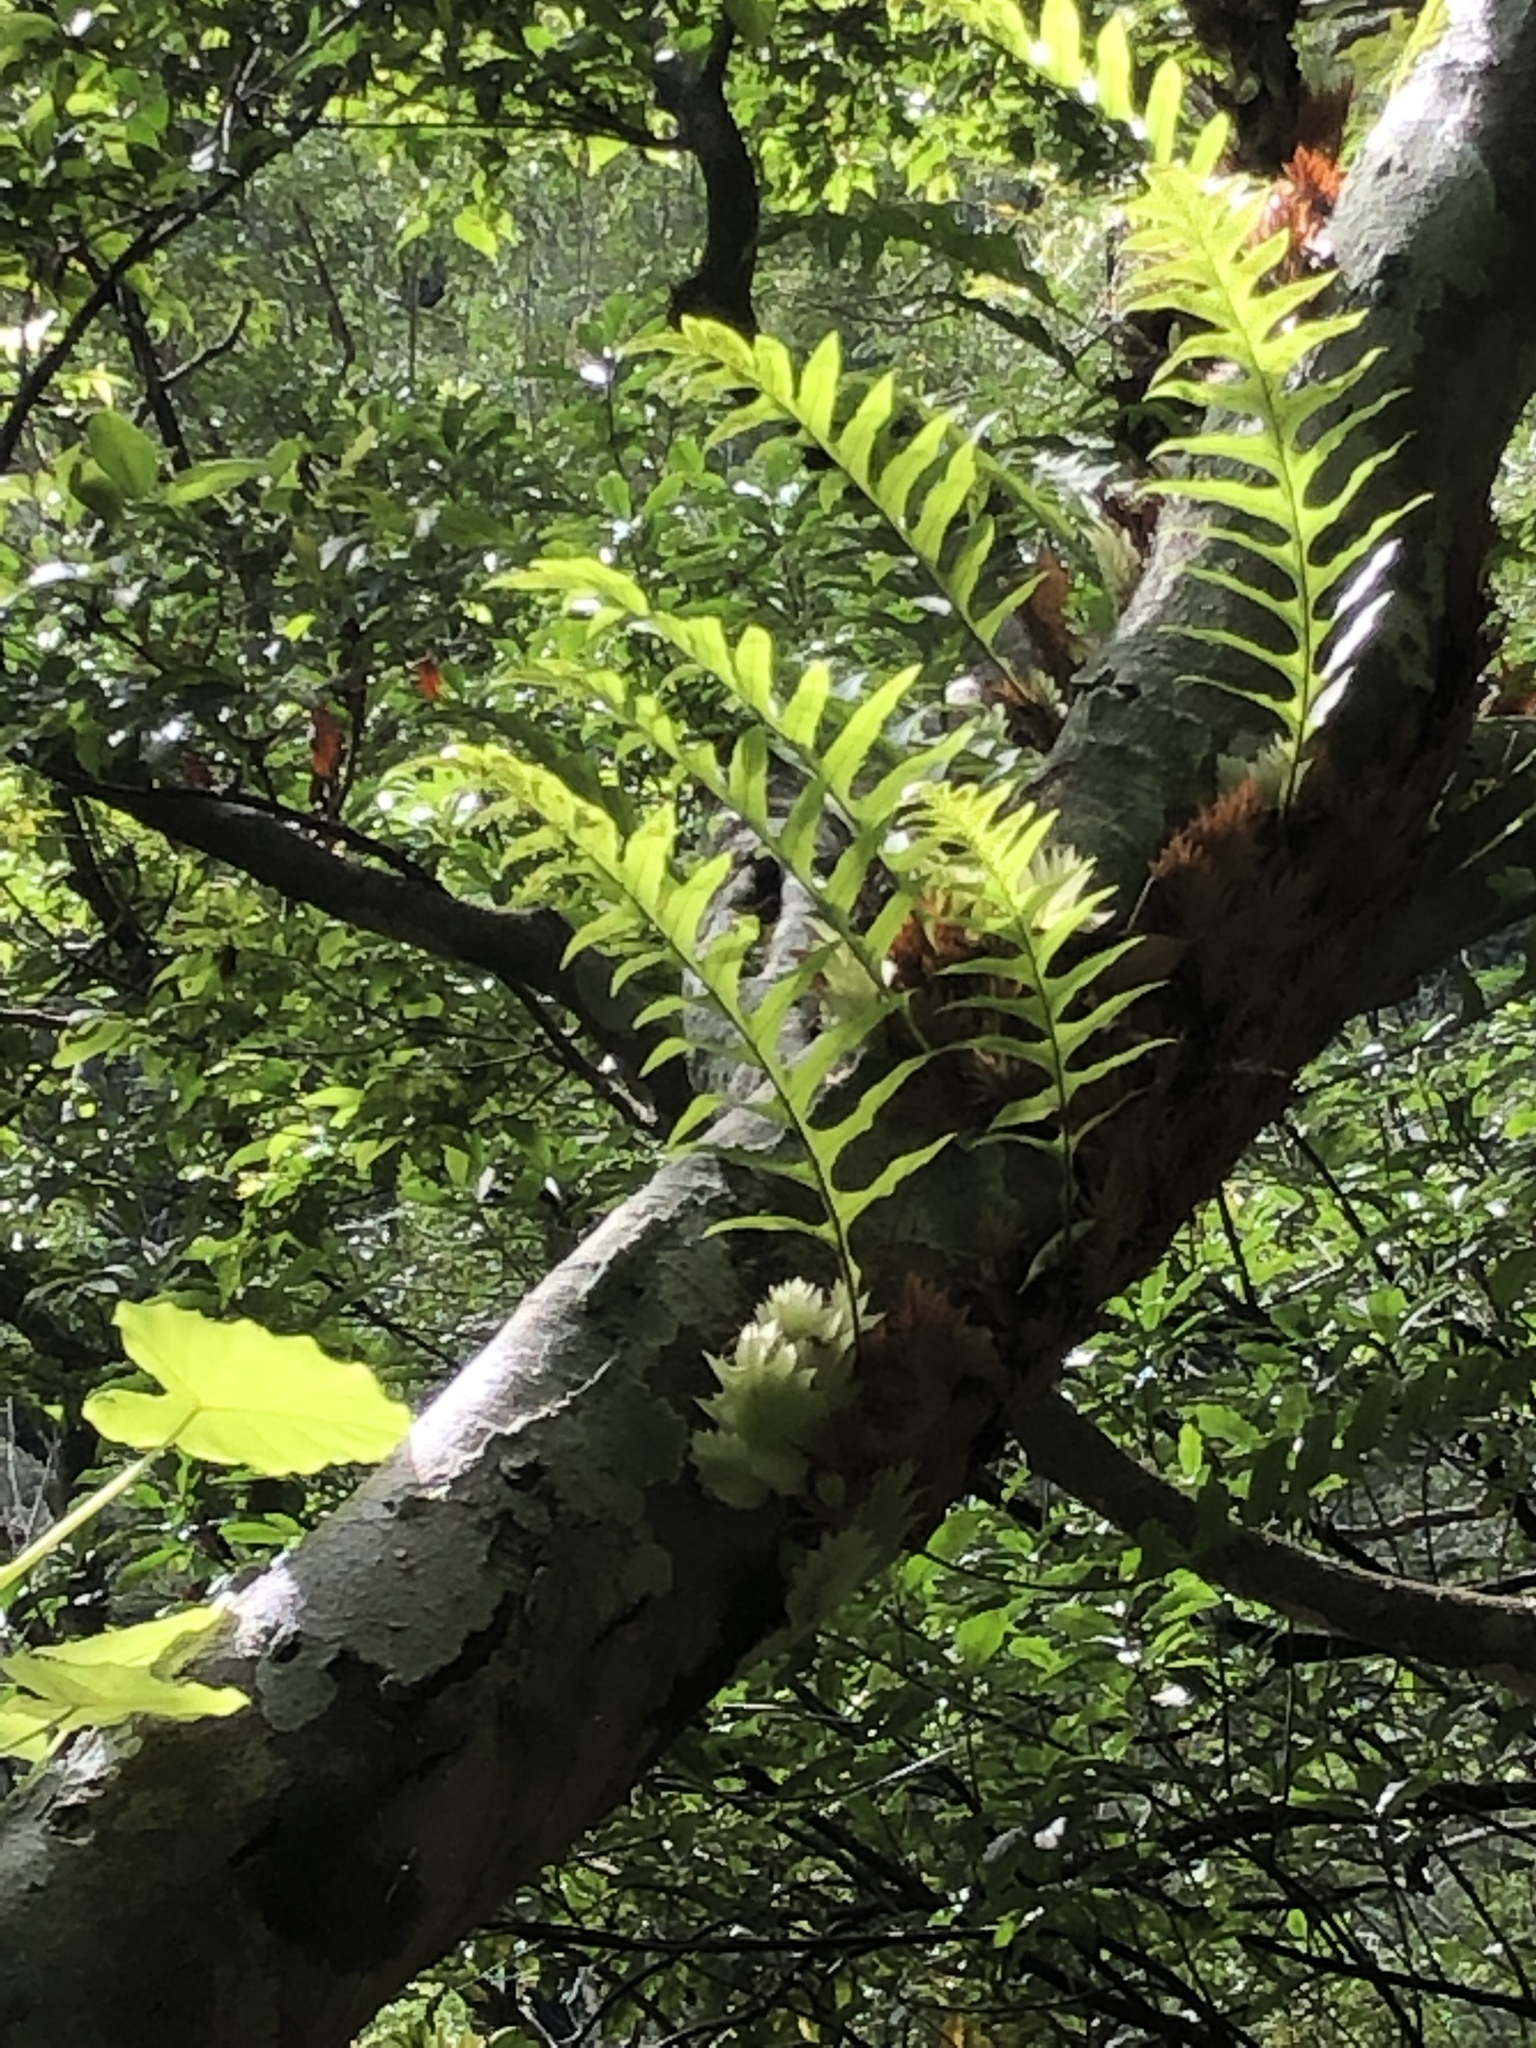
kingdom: Plantae
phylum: Tracheophyta
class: Polypodiopsida
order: Polypodiales
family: Polypodiaceae
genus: Drynaria
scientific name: Drynaria roosii
